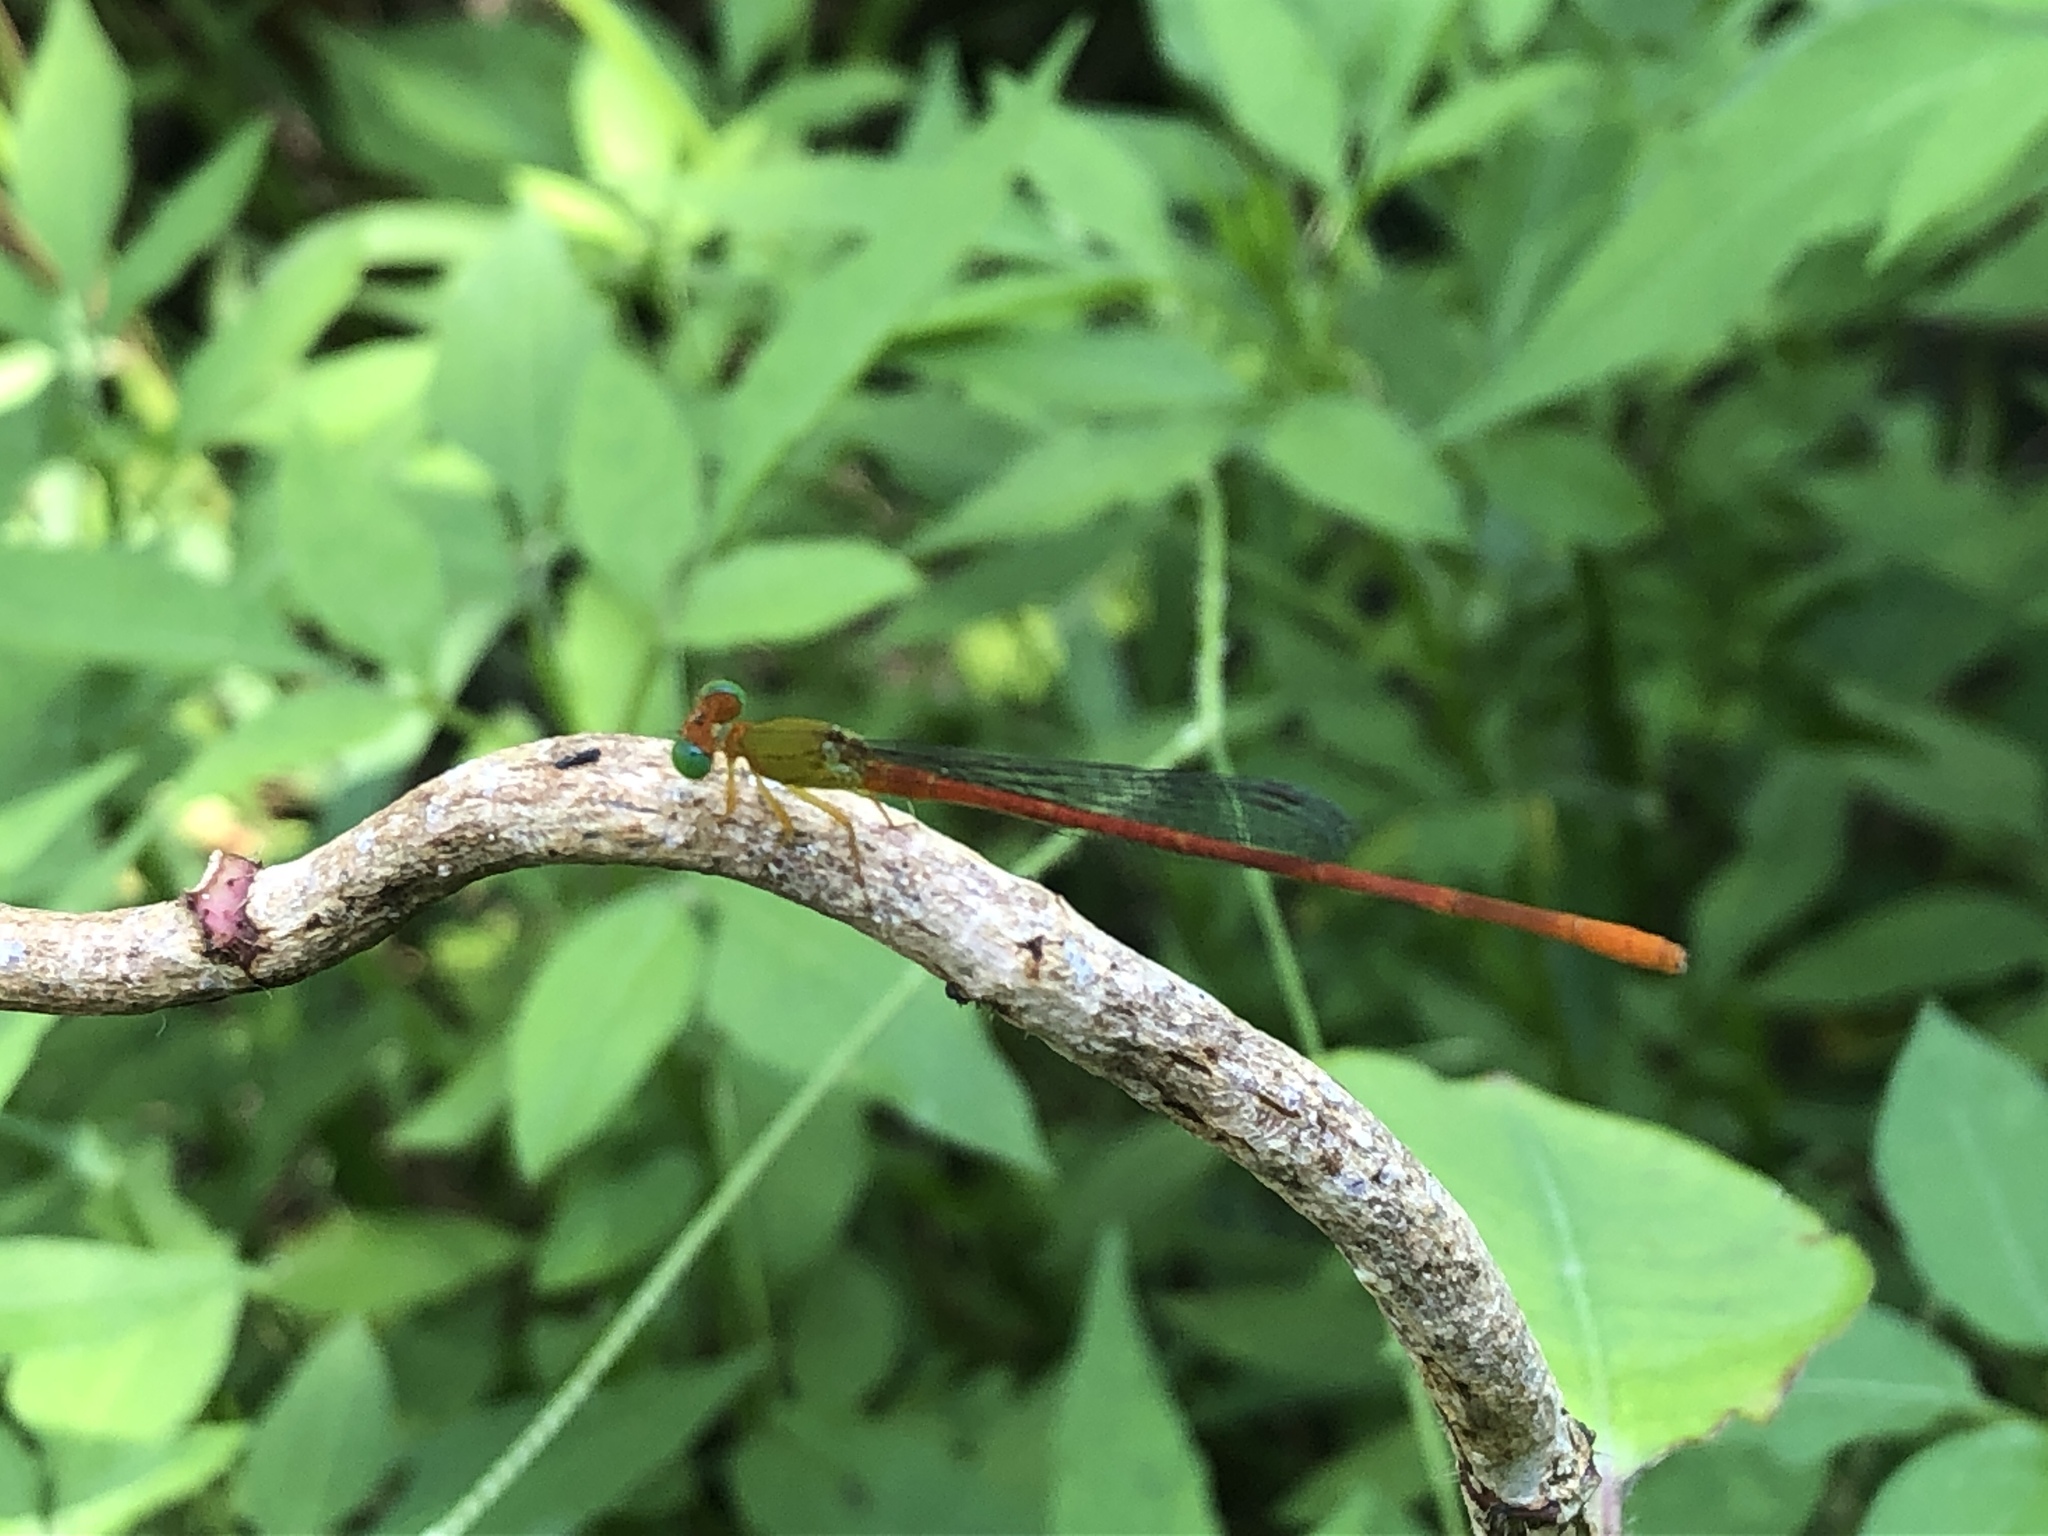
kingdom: Animalia
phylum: Arthropoda
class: Insecta
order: Odonata
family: Coenagrionidae
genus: Ceriagrion
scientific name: Ceriagrion auranticum
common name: Orange-tailed sprite
